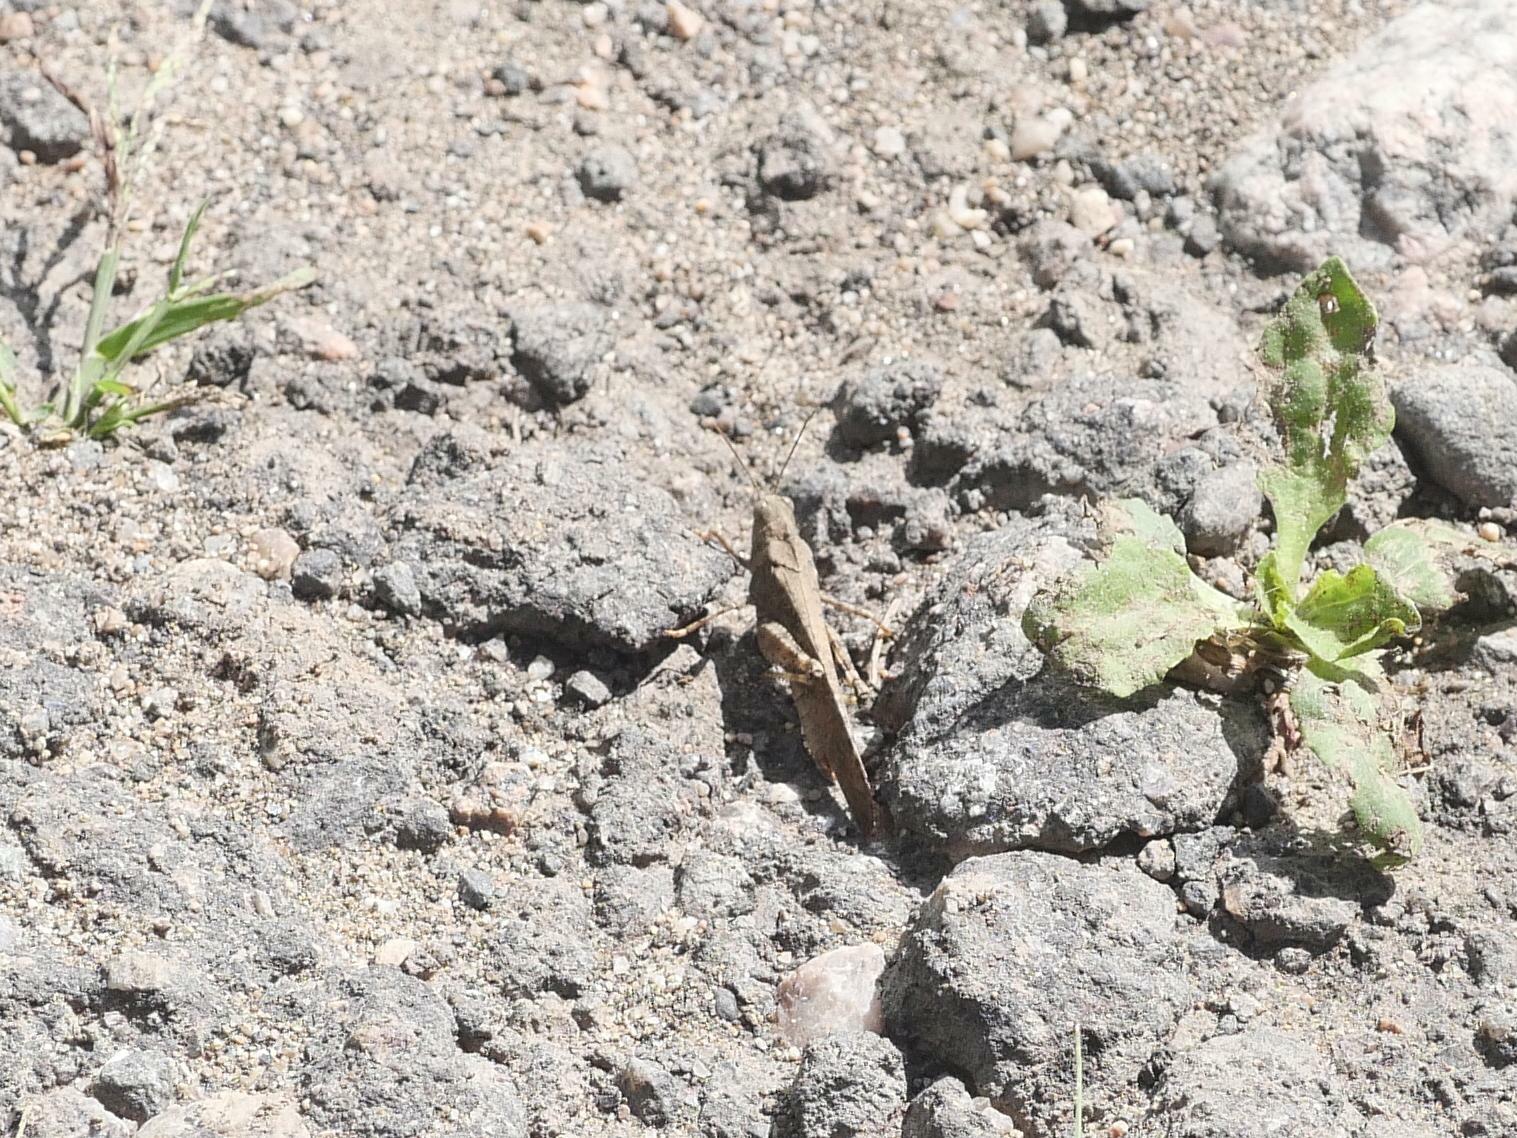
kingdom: Animalia
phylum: Arthropoda
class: Insecta
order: Orthoptera
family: Acrididae
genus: Dissosteira
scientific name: Dissosteira carolina
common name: Carolina grasshopper
